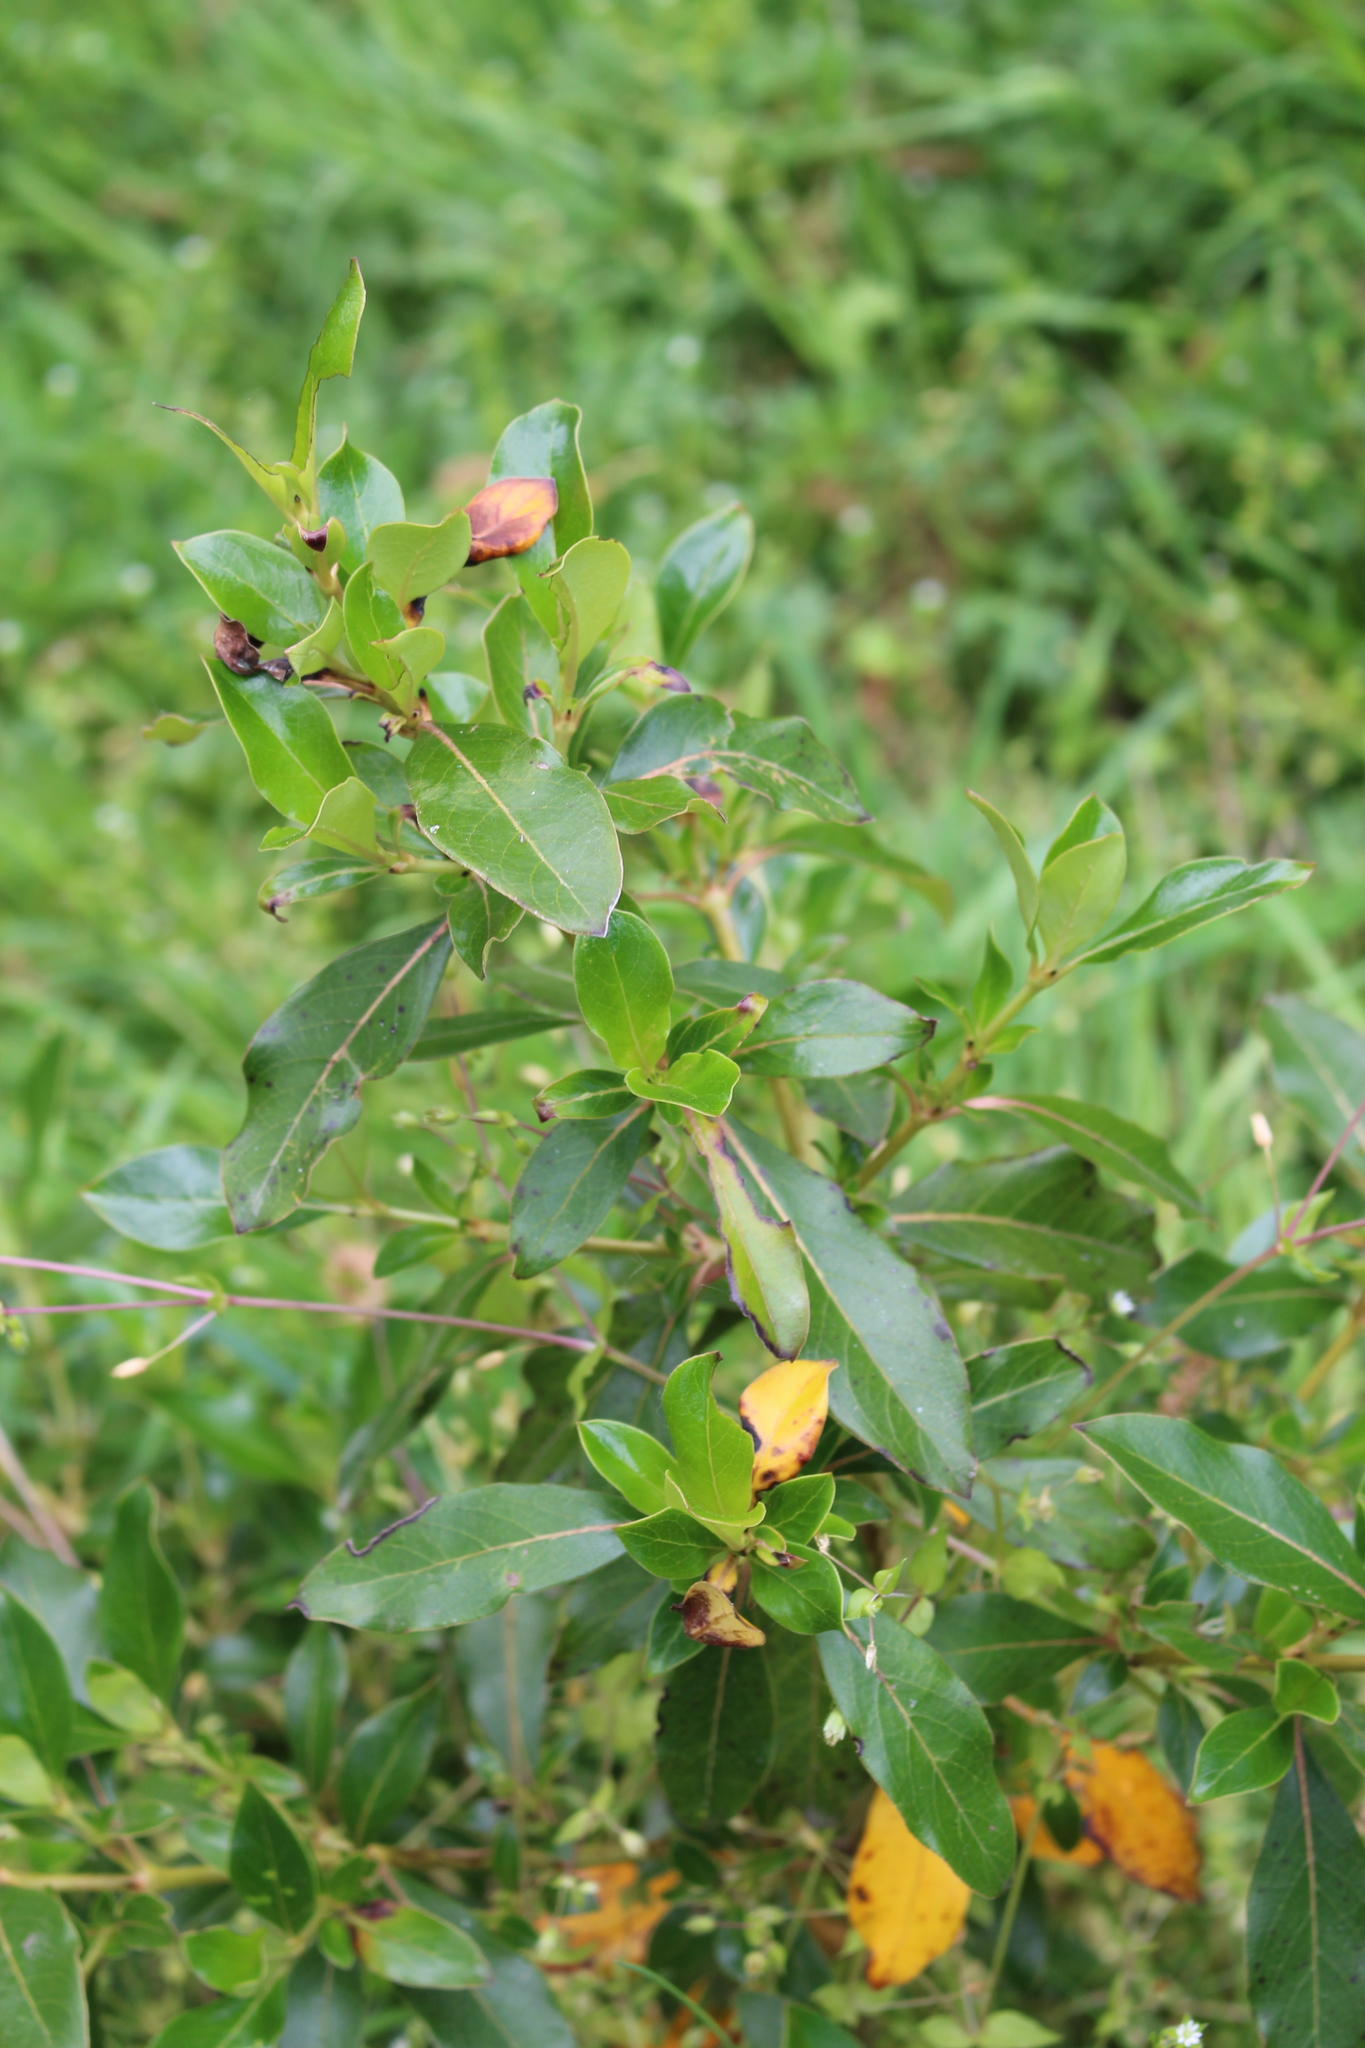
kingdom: Plantae
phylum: Tracheophyta
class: Magnoliopsida
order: Gentianales
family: Rubiaceae
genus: Coprosma
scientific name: Coprosma robusta
